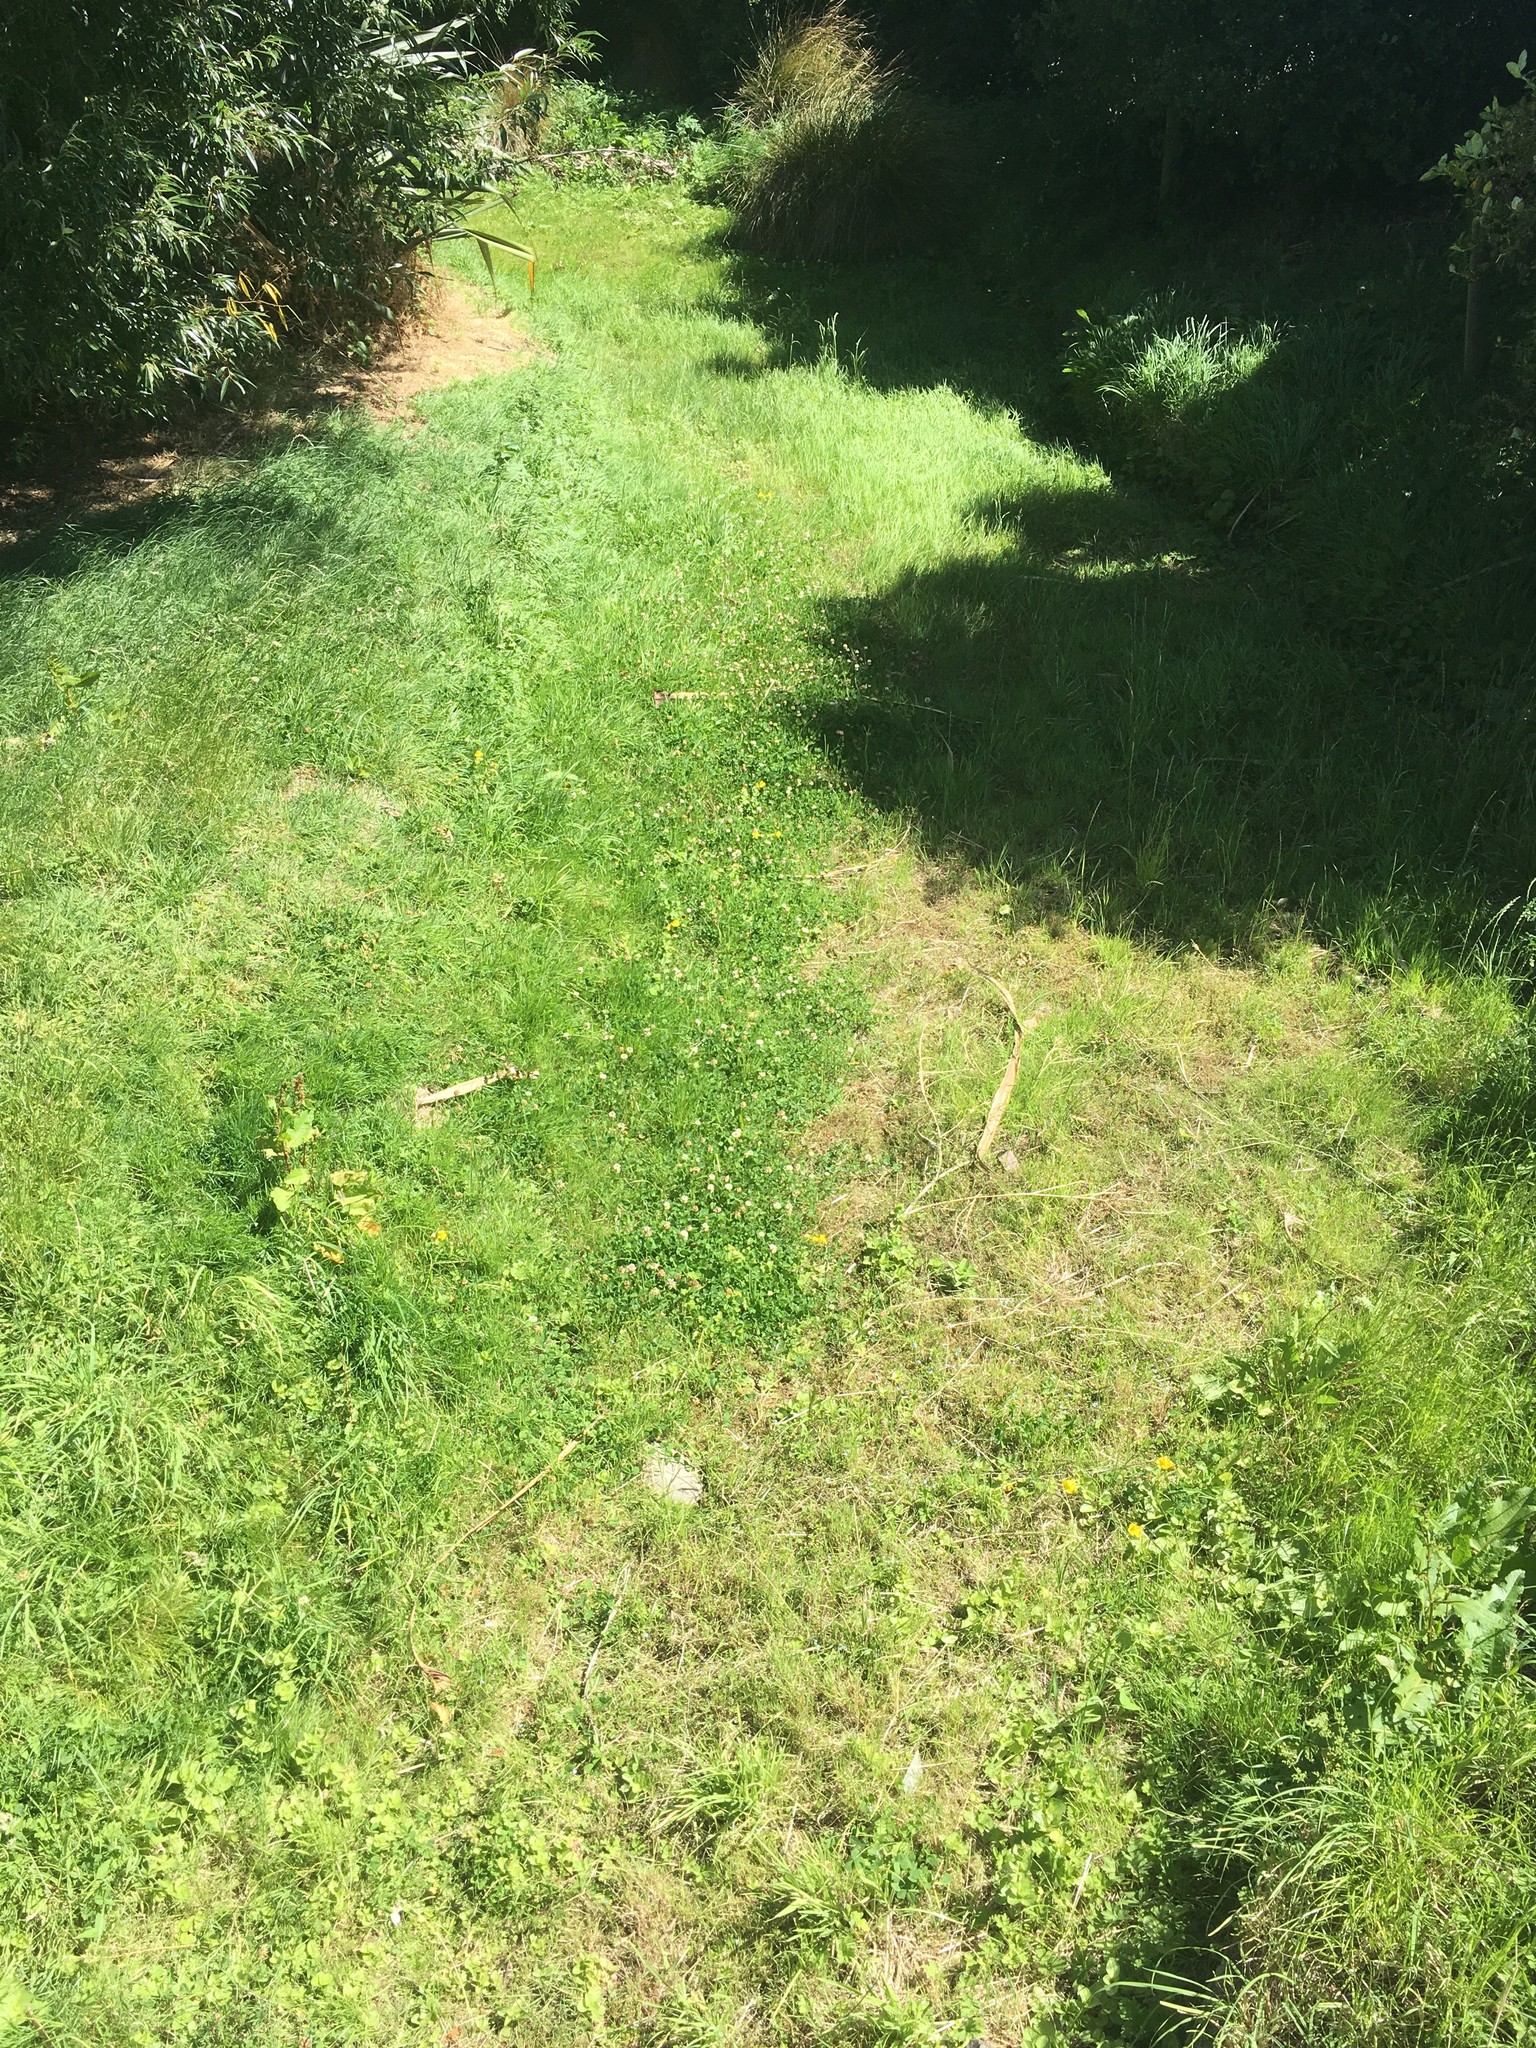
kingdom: Plantae
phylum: Tracheophyta
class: Magnoliopsida
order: Fabales
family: Fabaceae
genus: Trifolium
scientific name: Trifolium repens
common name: White clover
